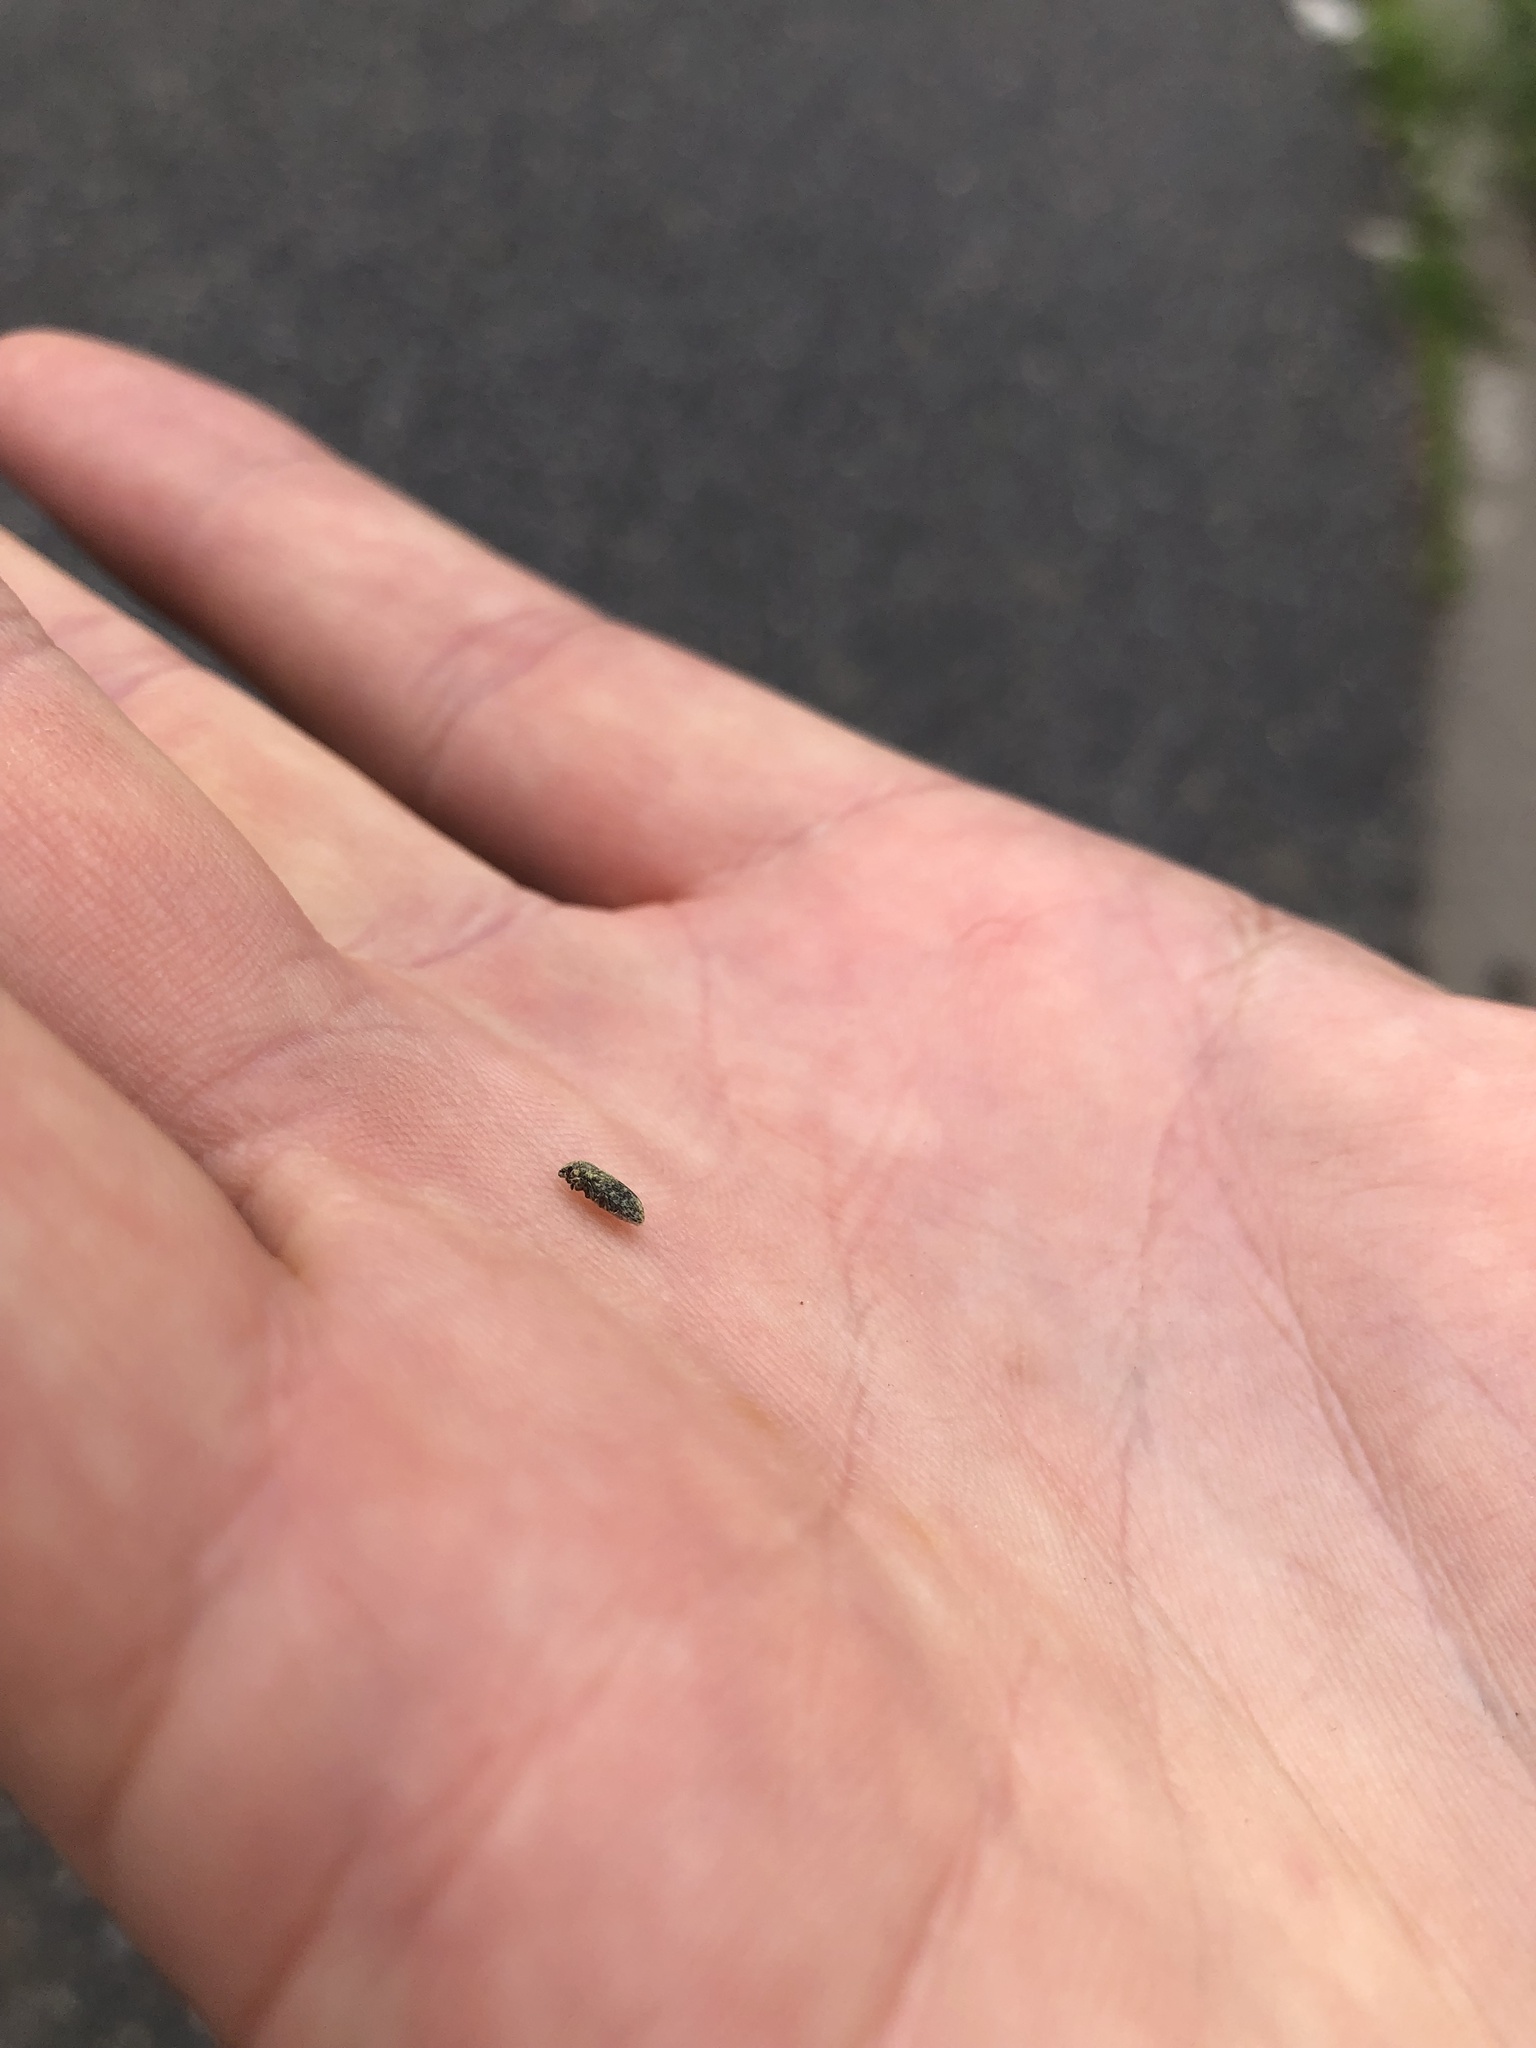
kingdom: Animalia
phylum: Arthropoda
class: Insecta
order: Coleoptera
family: Curculionidae
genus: Bangasternus
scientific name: Bangasternus fausti
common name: Broad-nosed knapweed seedhead weevil
